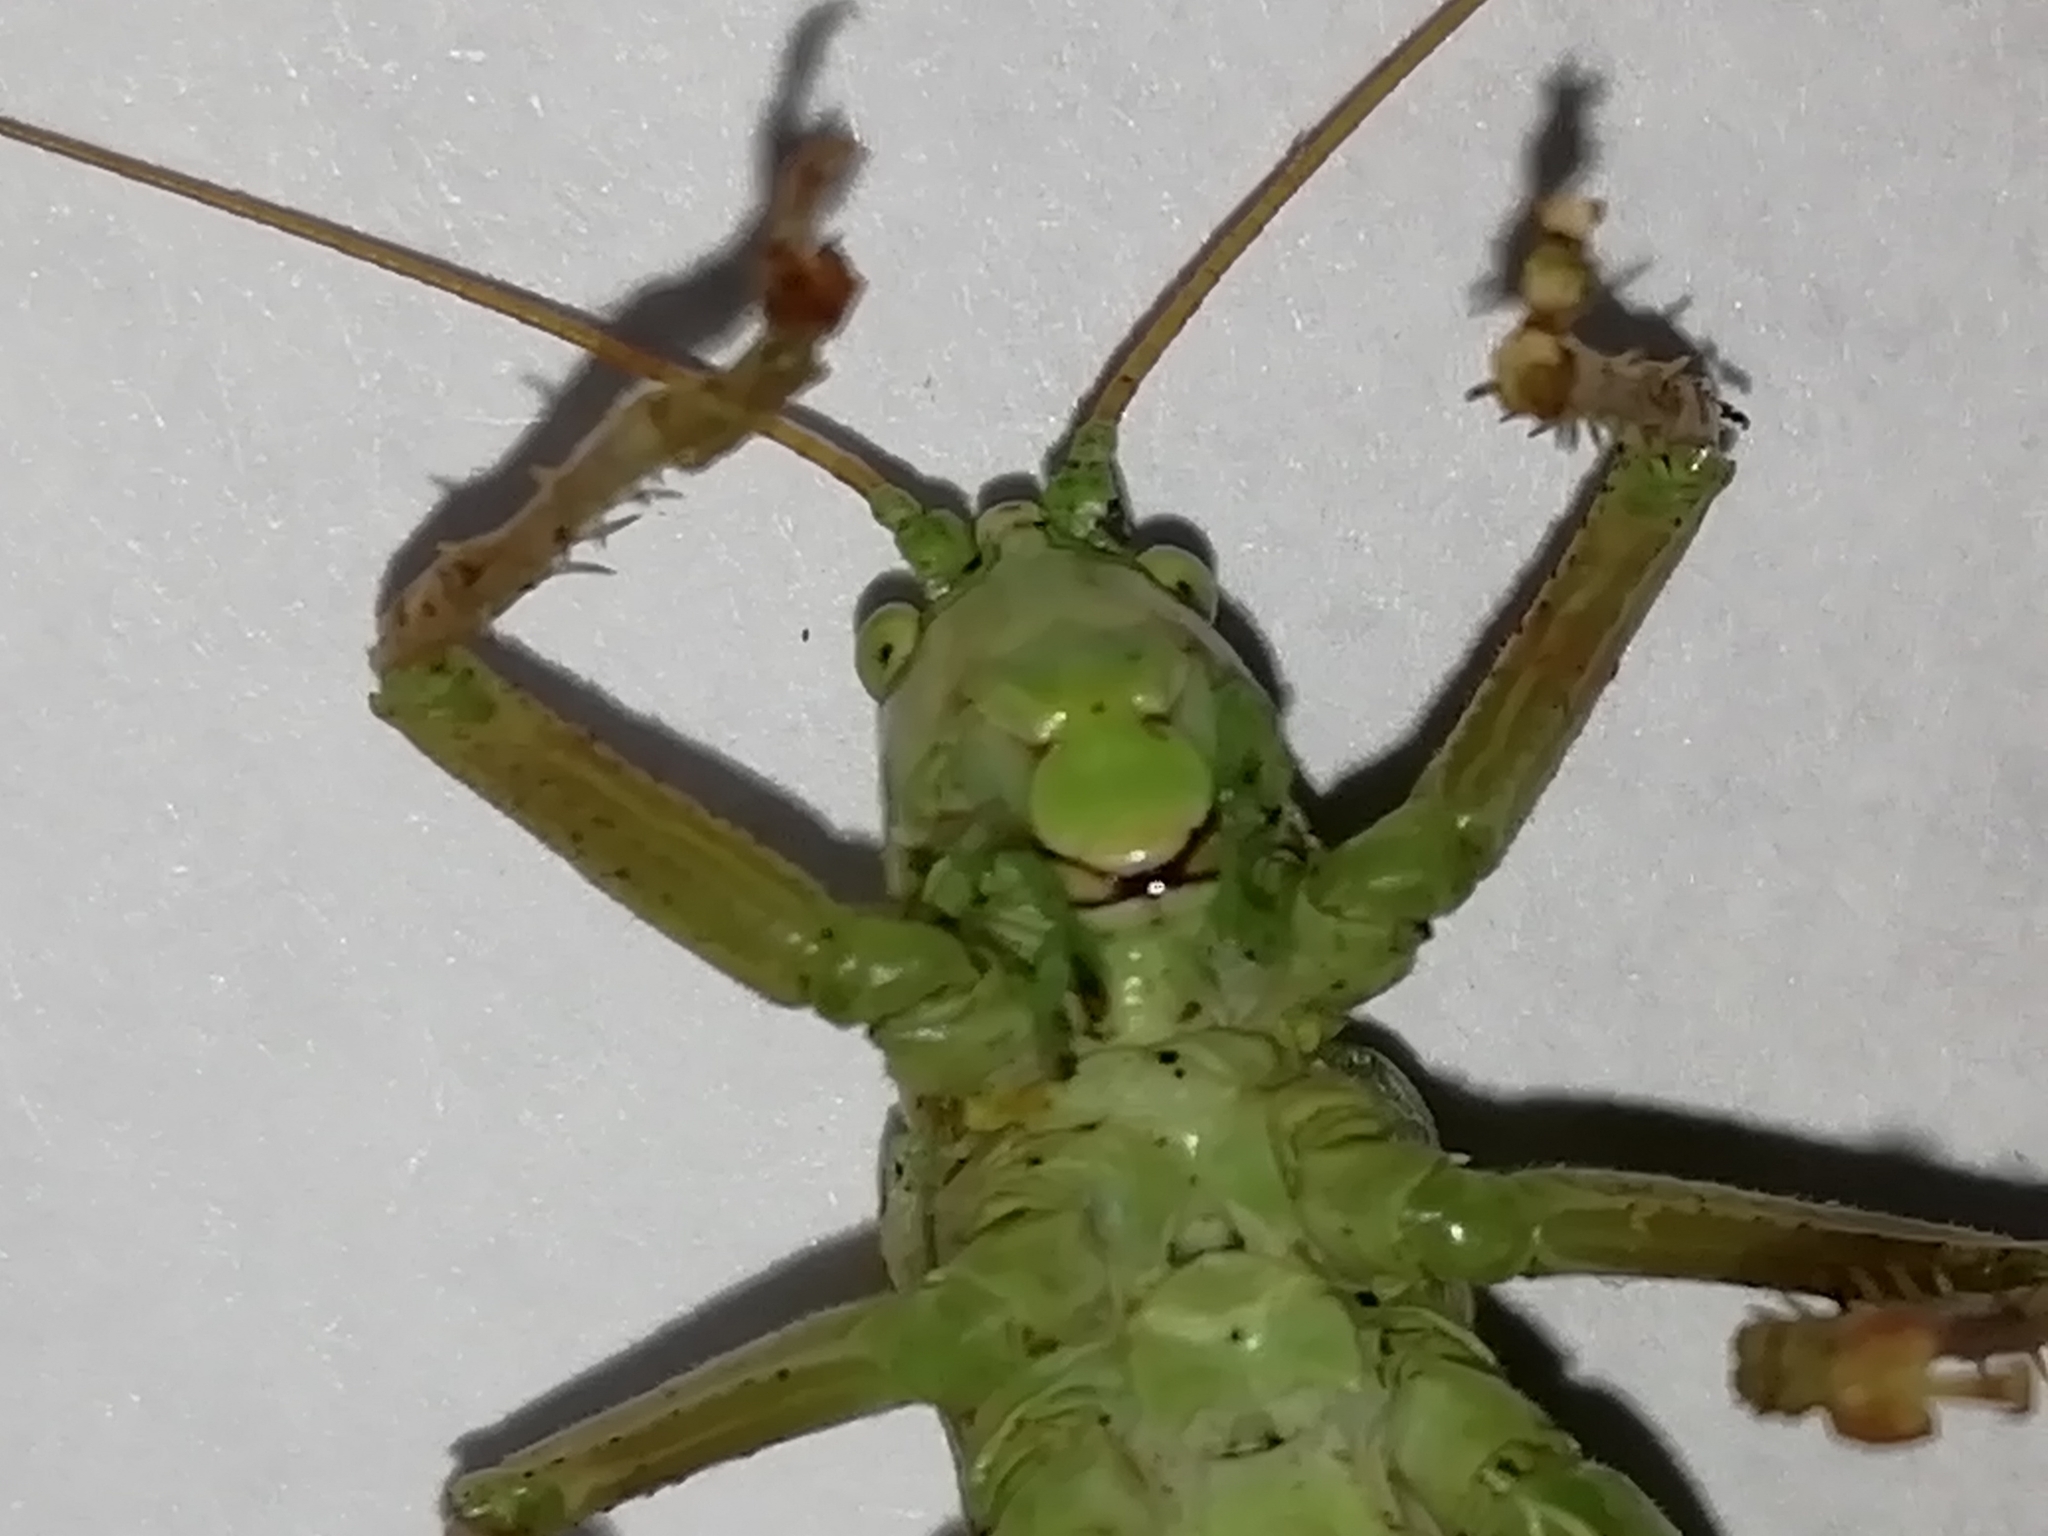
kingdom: Animalia
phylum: Arthropoda
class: Insecta
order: Orthoptera
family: Tettigoniidae
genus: Tettigonia
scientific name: Tettigonia cantans
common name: Upland green bush-cricket
